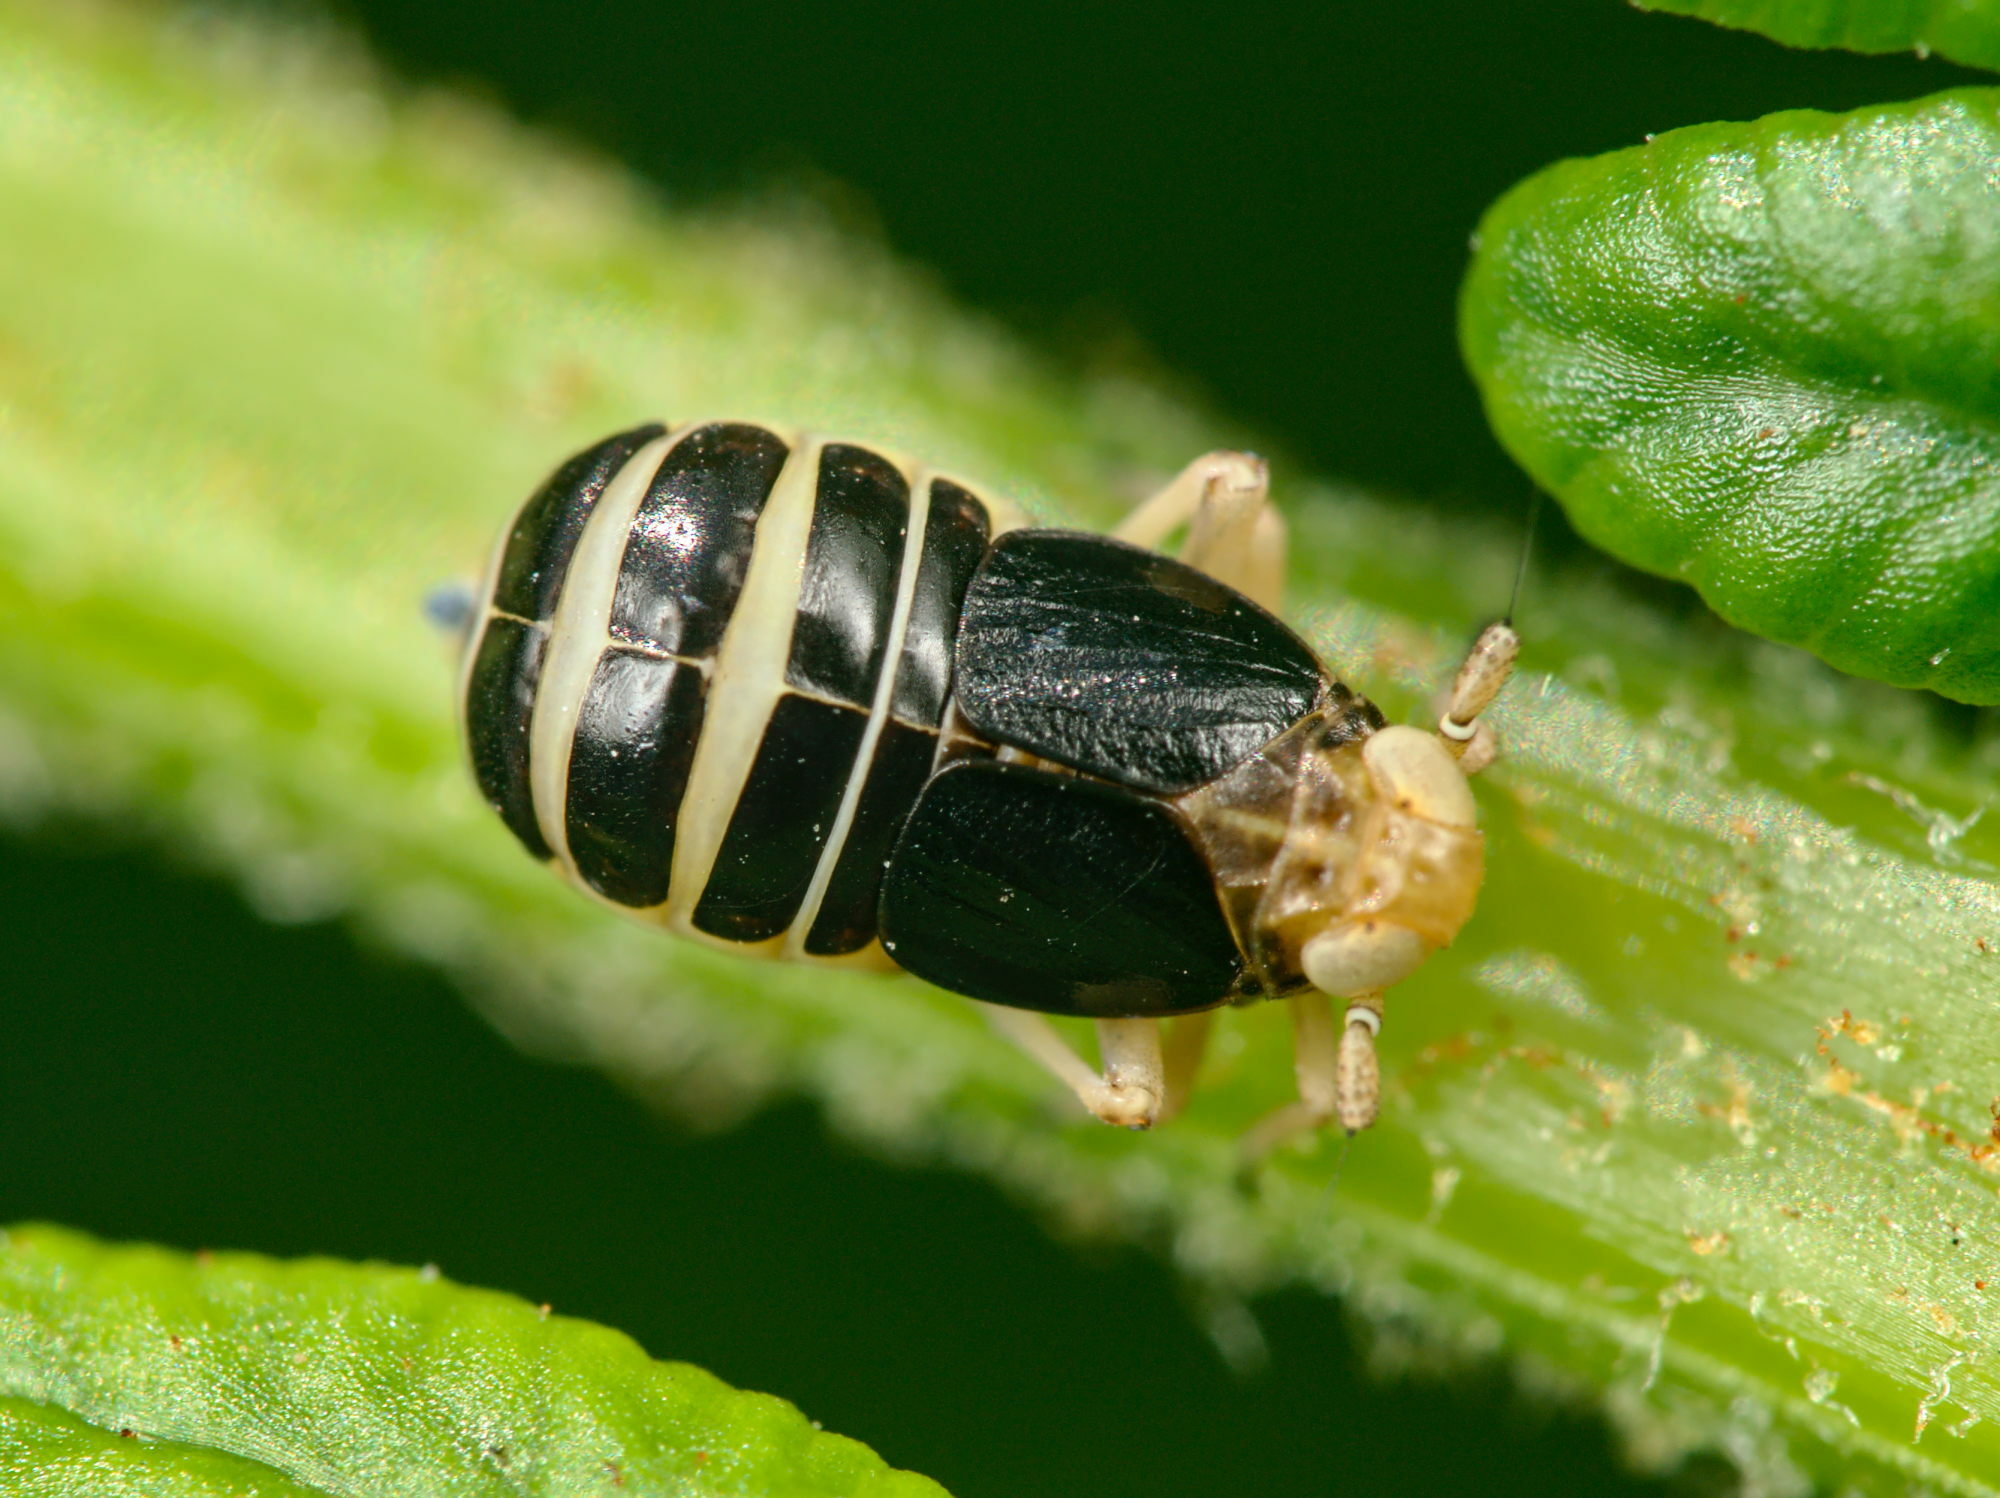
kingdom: Animalia
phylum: Arthropoda
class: Insecta
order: Hemiptera
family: Delphacidae
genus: Ditropis
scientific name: Ditropis pteridis
